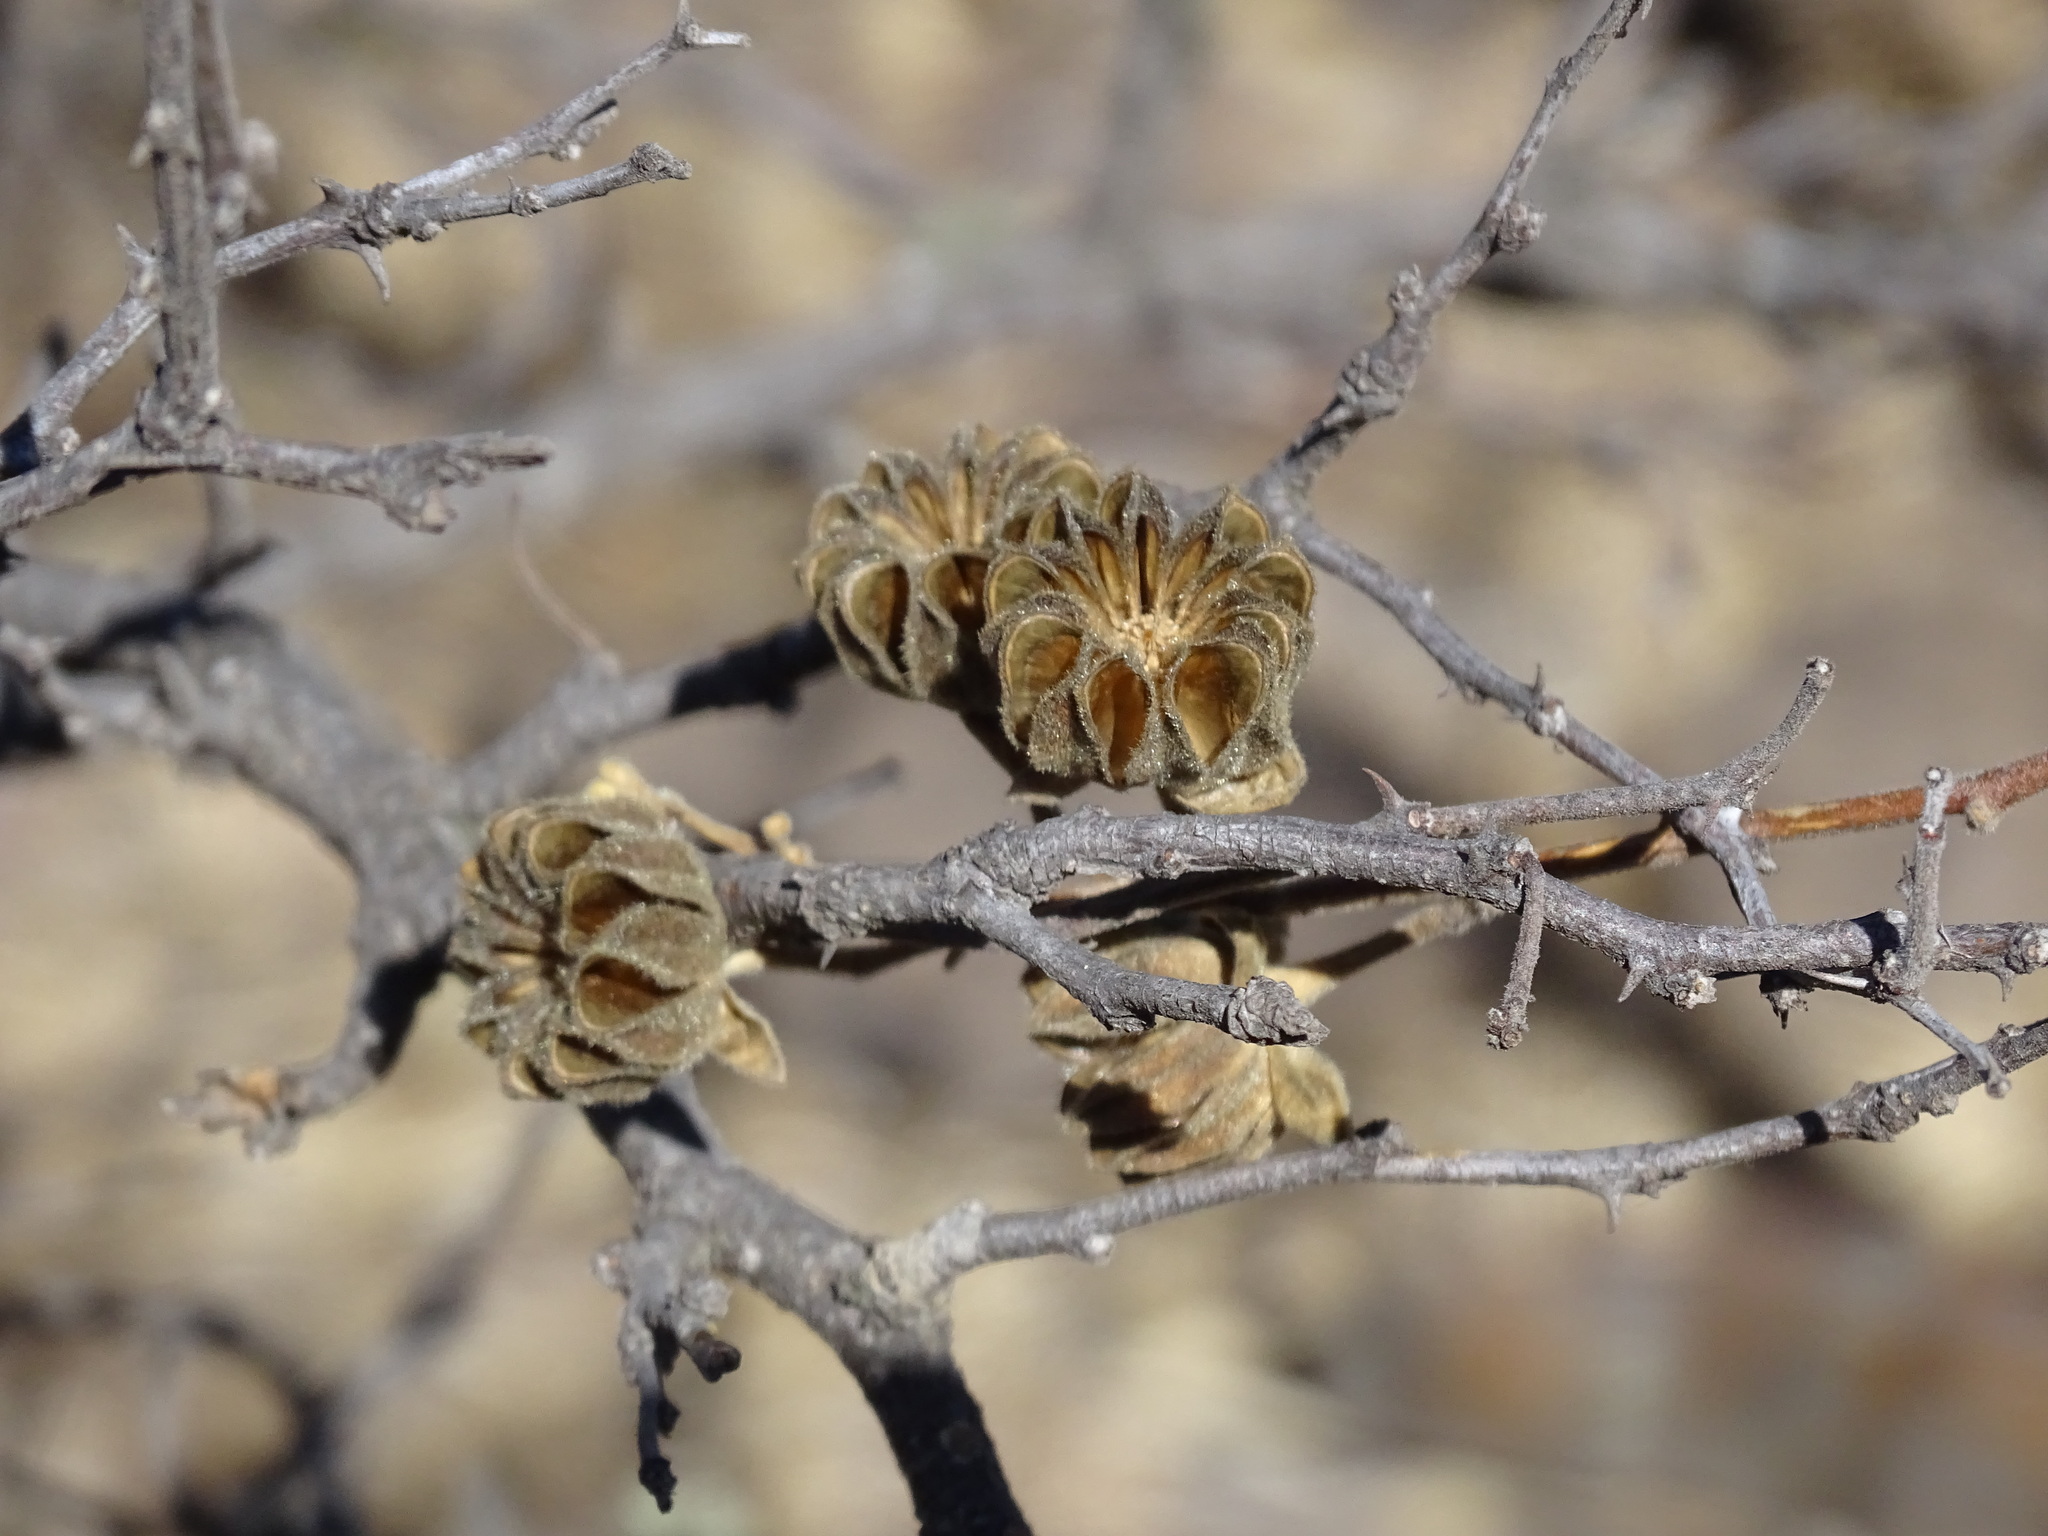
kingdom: Plantae
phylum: Tracheophyta
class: Magnoliopsida
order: Malvales
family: Malvaceae
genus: Abutilon
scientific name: Abutilon reventum
